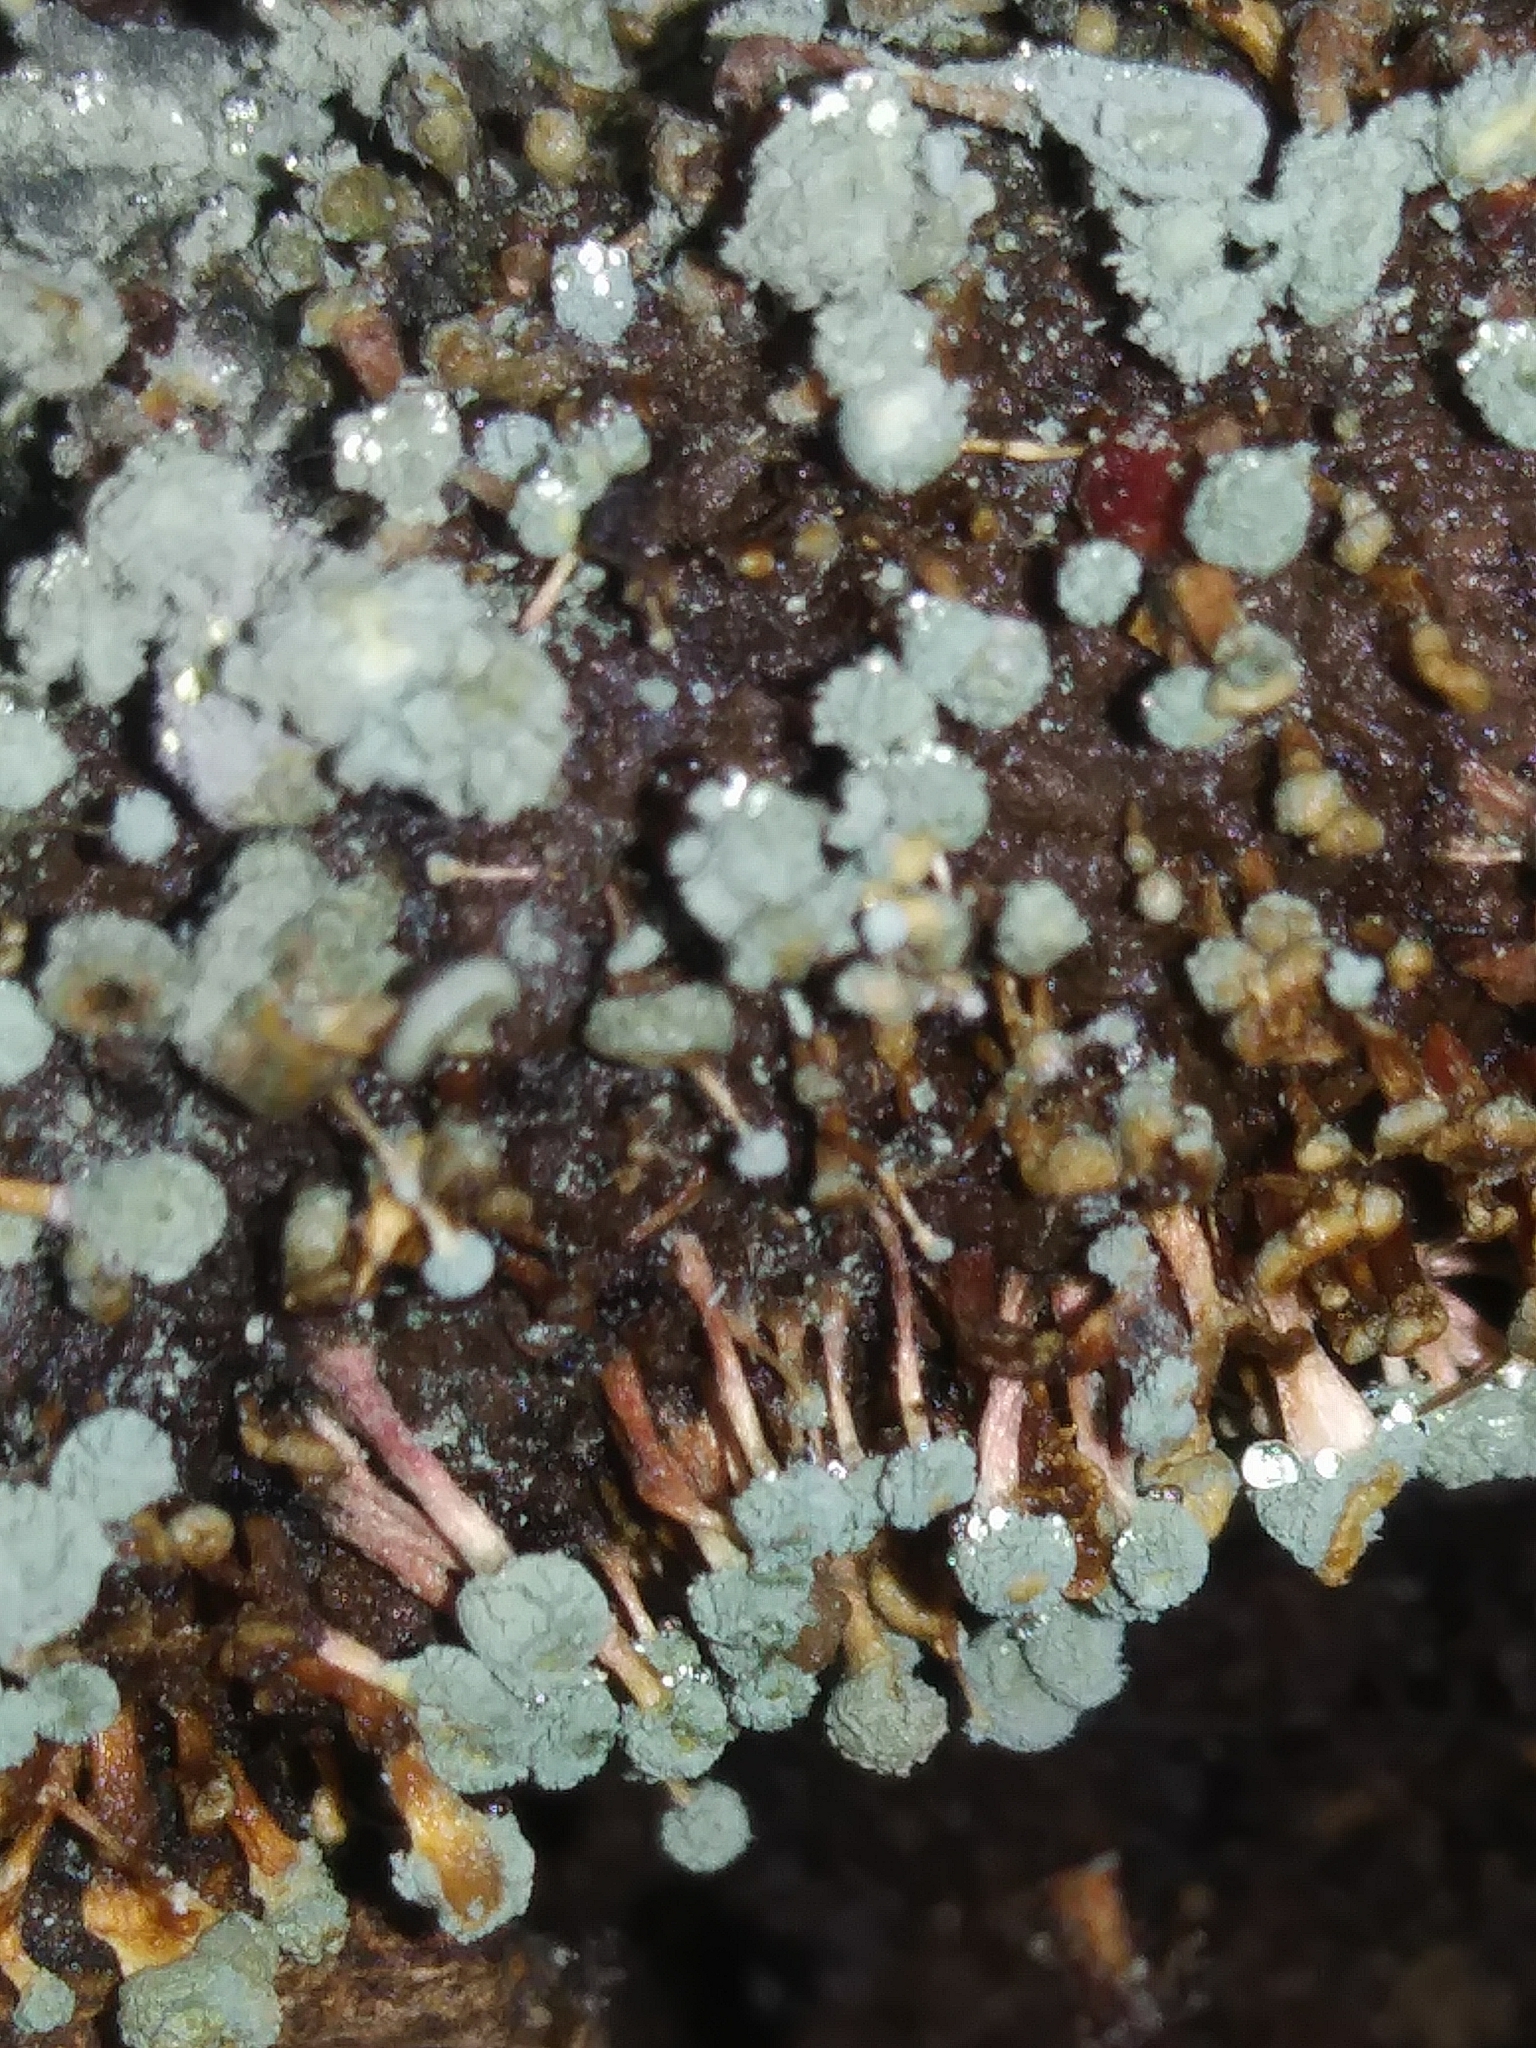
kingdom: Fungi
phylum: Ascomycota
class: Eurotiomycetes
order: Eurotiales
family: Aspergillaceae
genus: Penicillium
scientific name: Penicillium vulpinum
